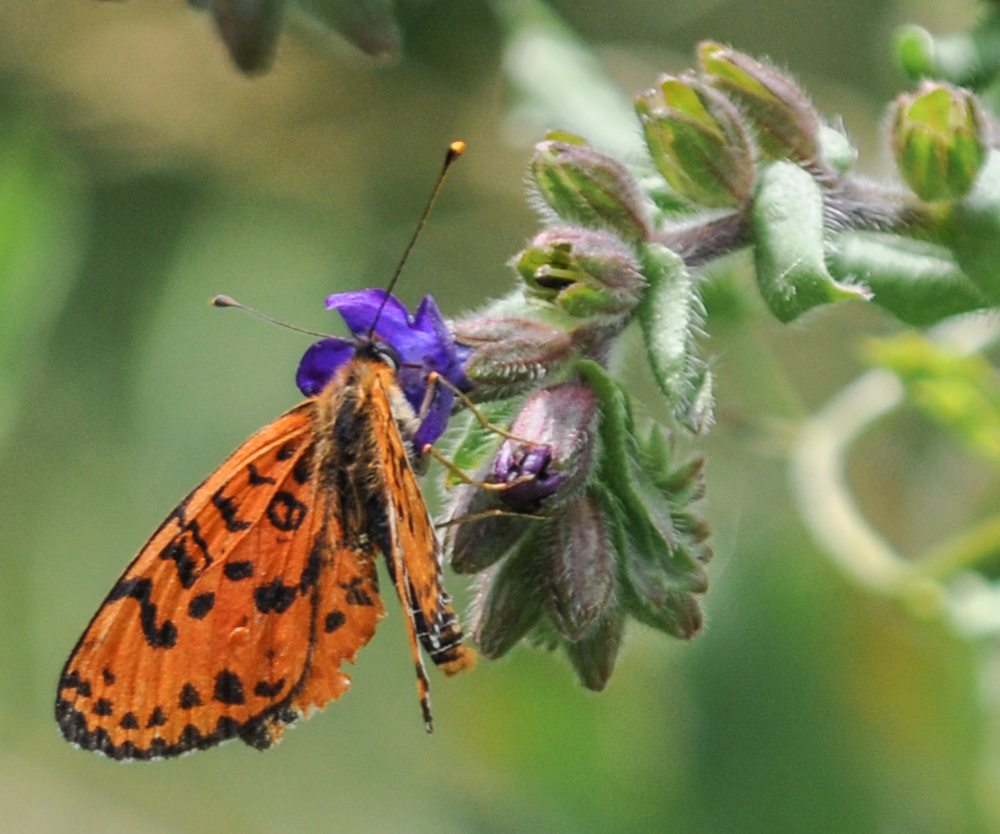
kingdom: Animalia
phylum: Arthropoda
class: Insecta
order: Lepidoptera
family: Nymphalidae
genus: Melitaea
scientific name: Melitaea didyma
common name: Spotted fritillary
